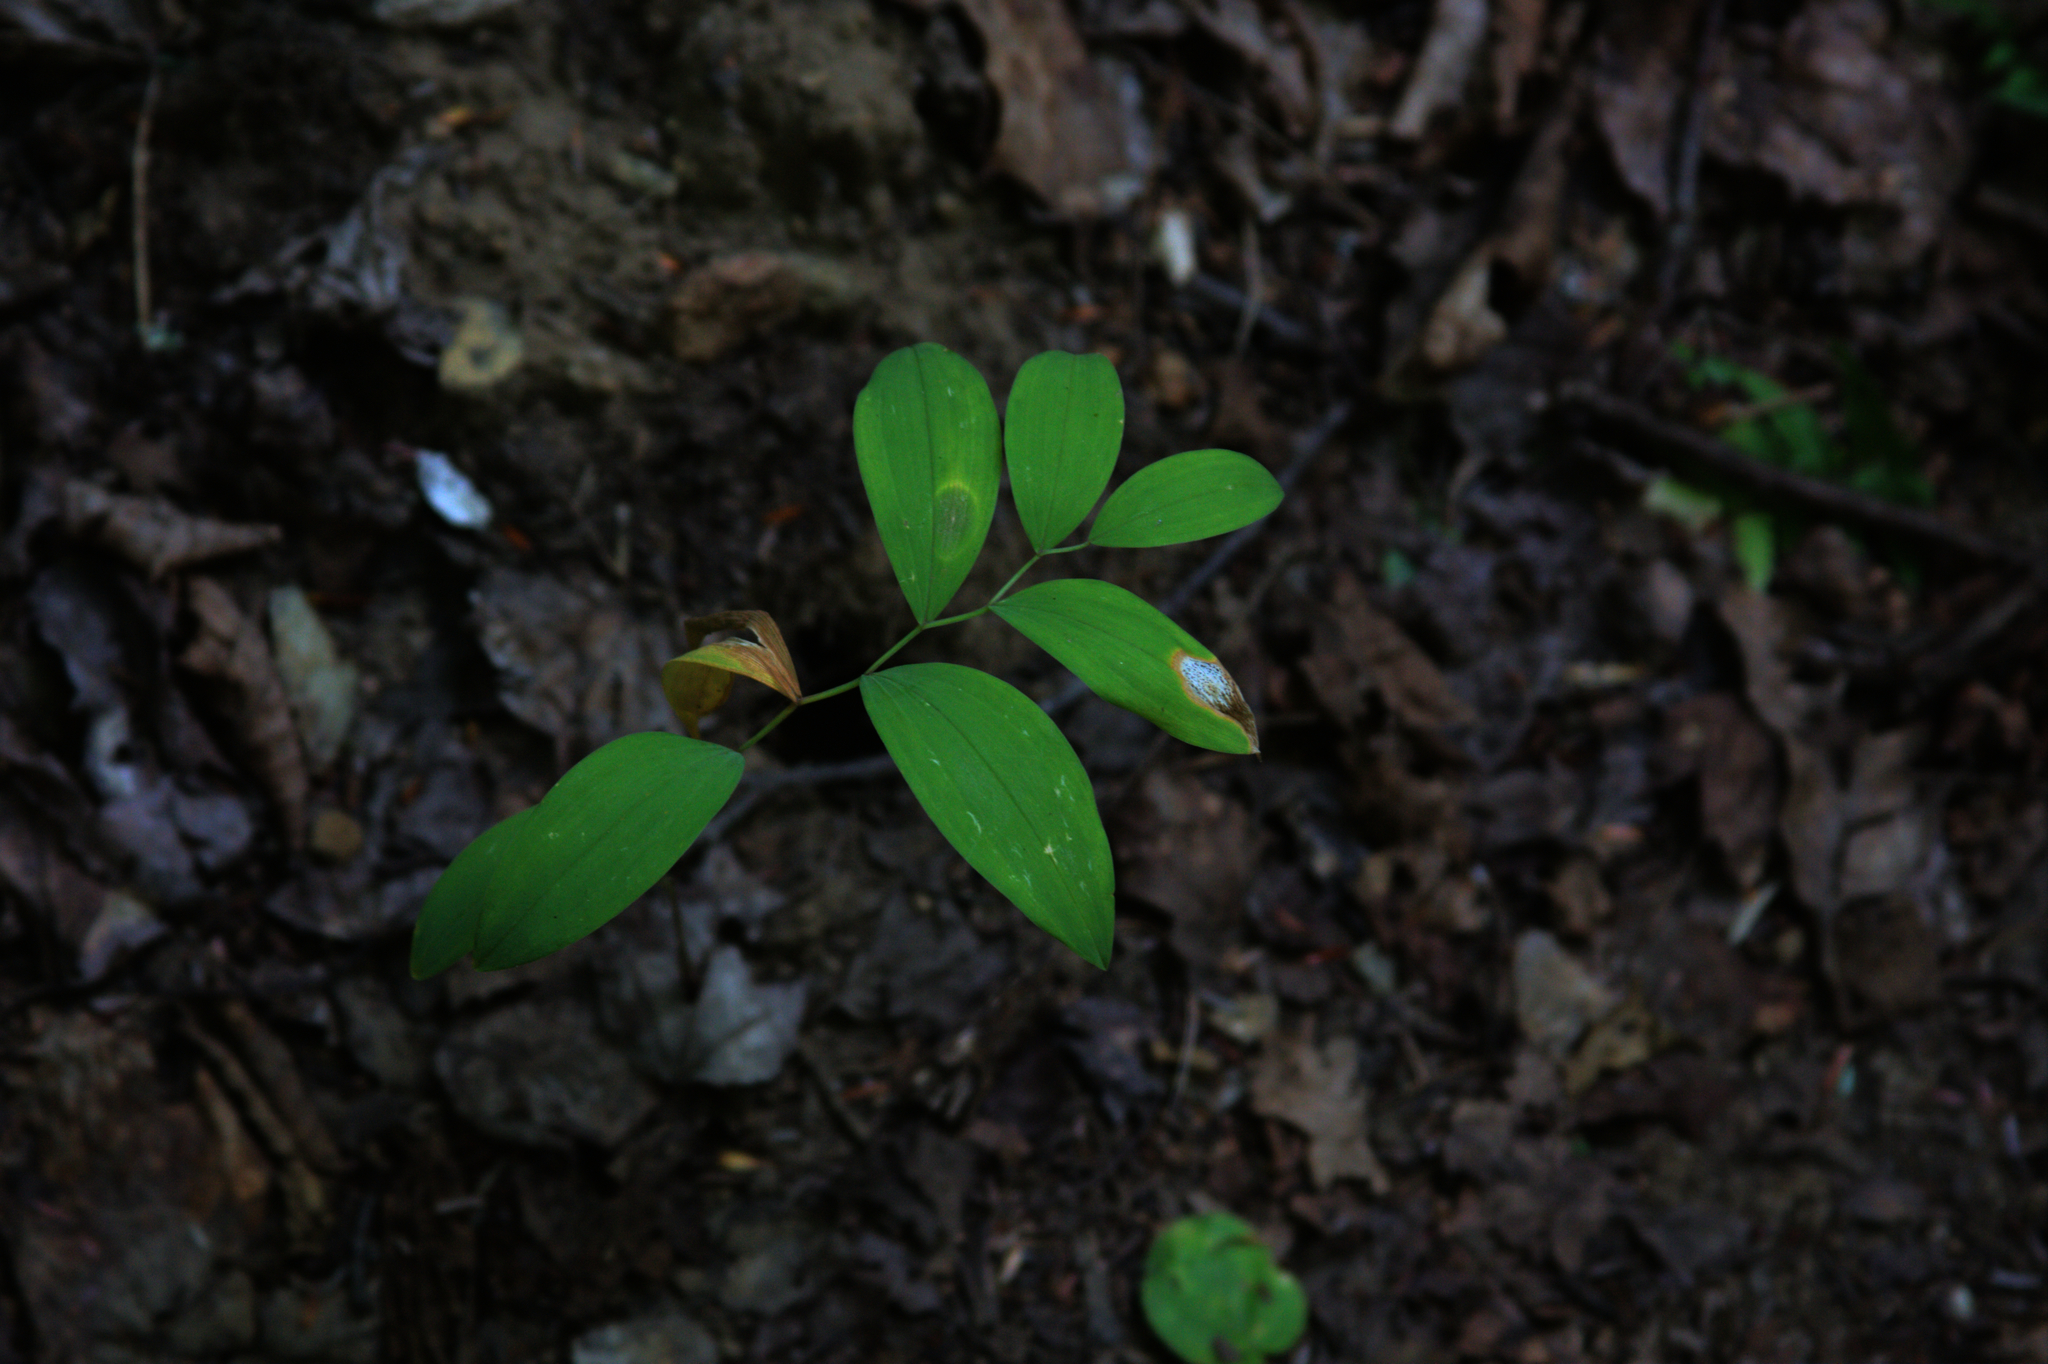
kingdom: Plantae
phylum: Tracheophyta
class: Liliopsida
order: Liliales
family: Colchicaceae
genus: Uvularia
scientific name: Uvularia sessilifolia
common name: Straw-lily
